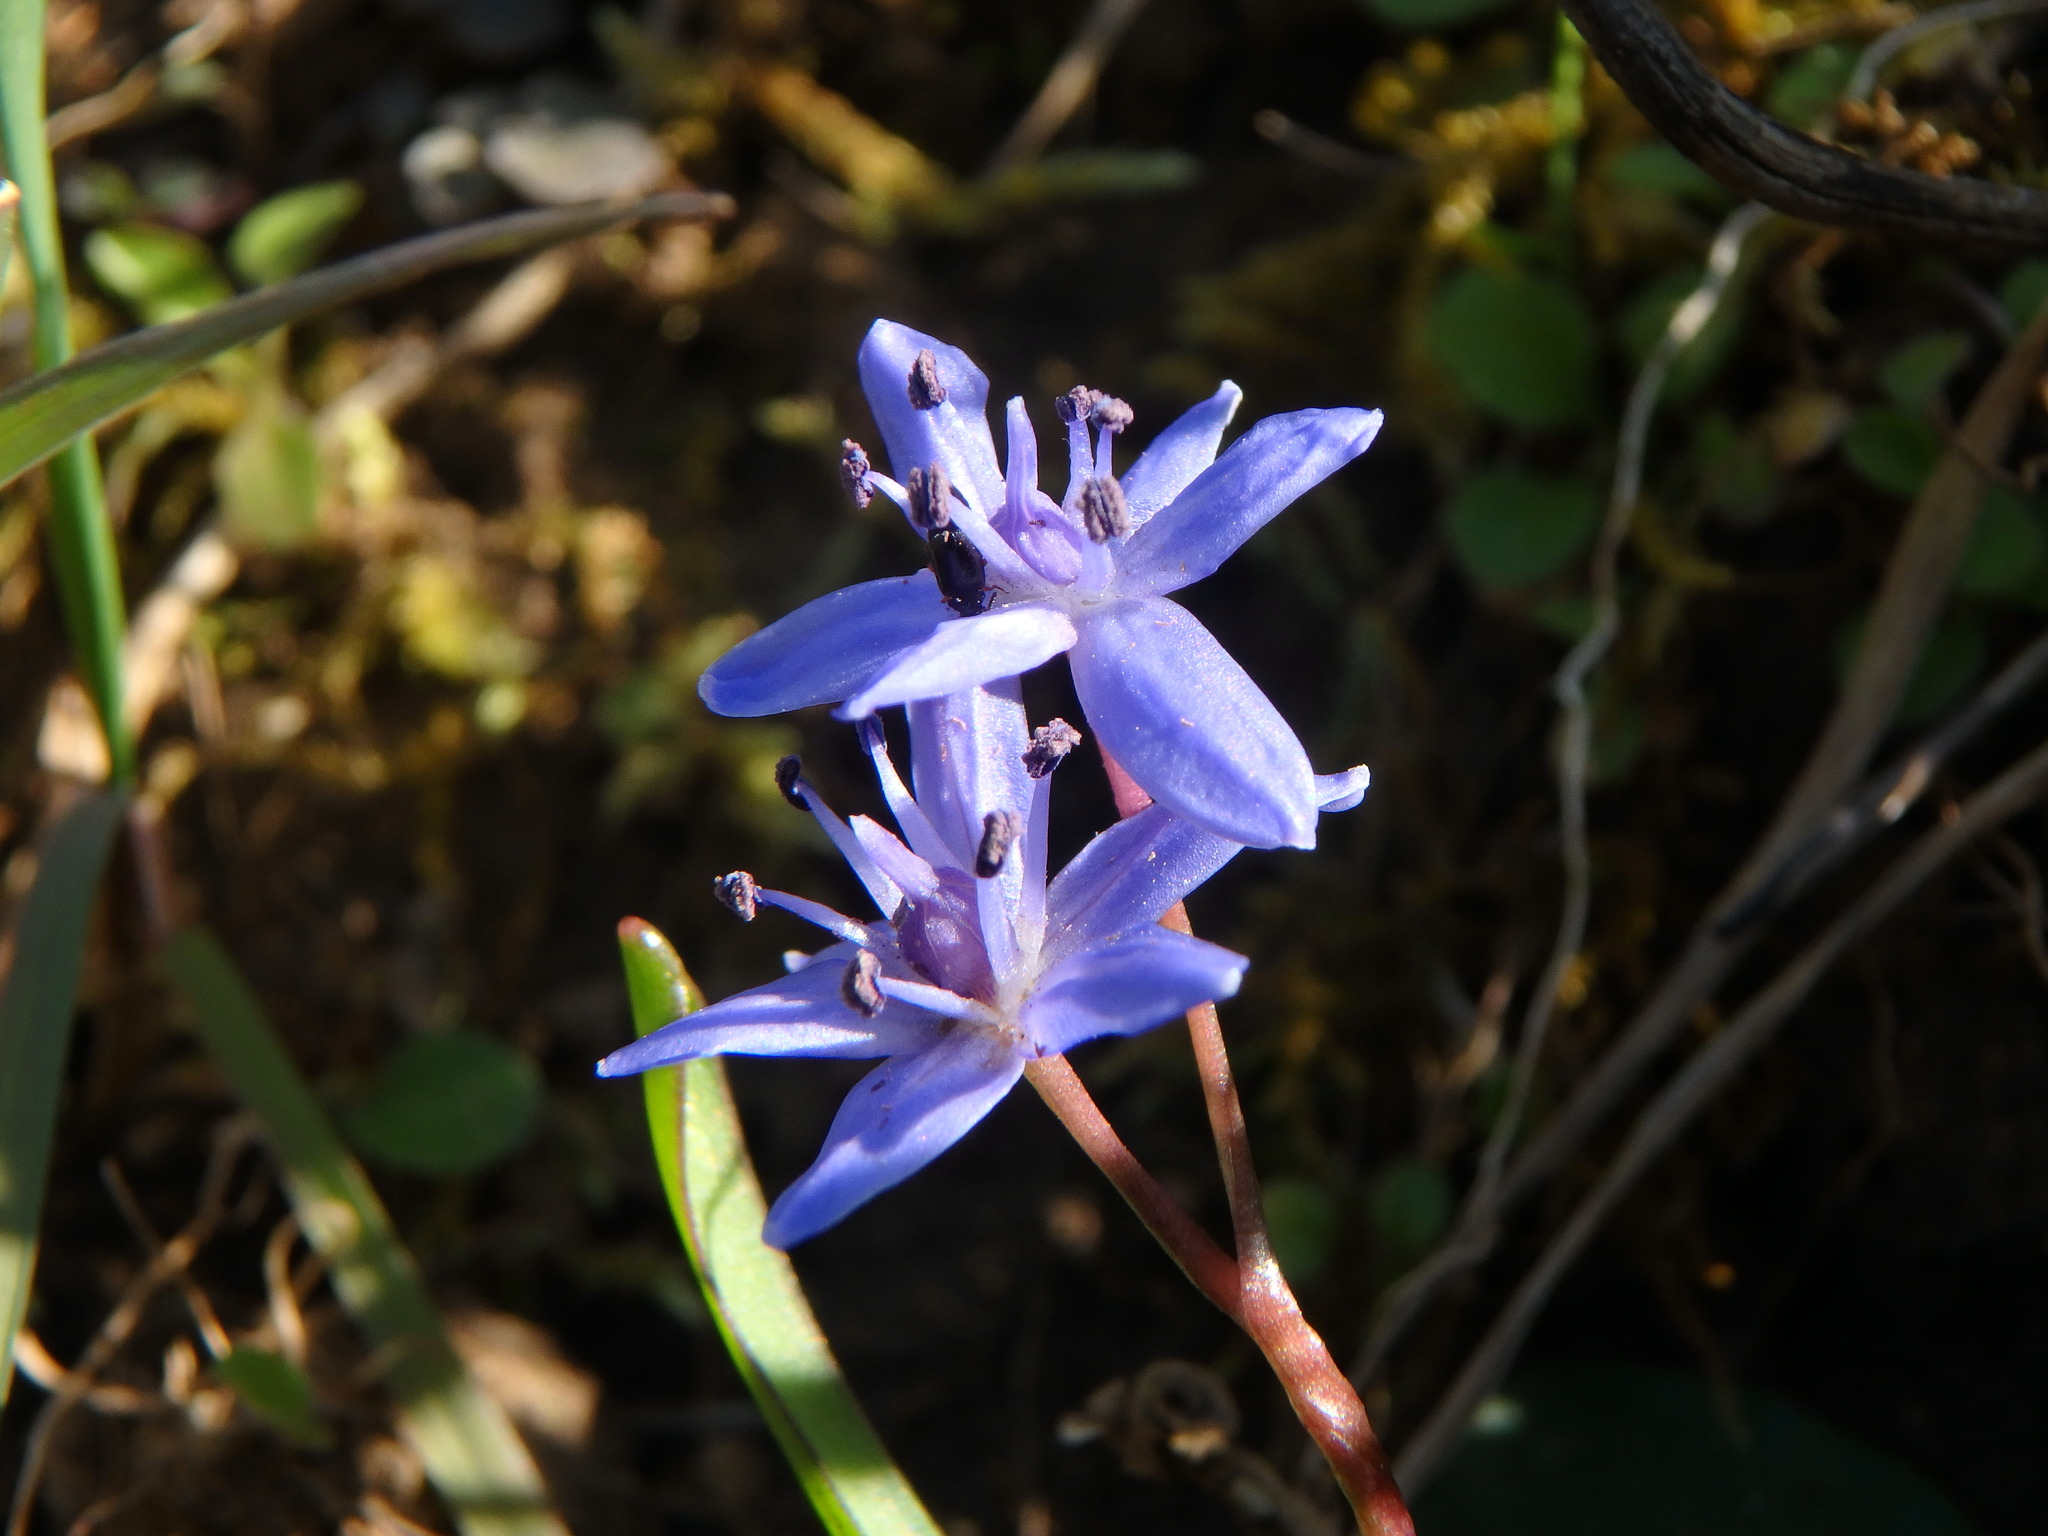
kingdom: Plantae
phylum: Tracheophyta
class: Liliopsida
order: Asparagales
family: Asparagaceae
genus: Scilla
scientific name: Scilla bifolia
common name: Alpine squill
